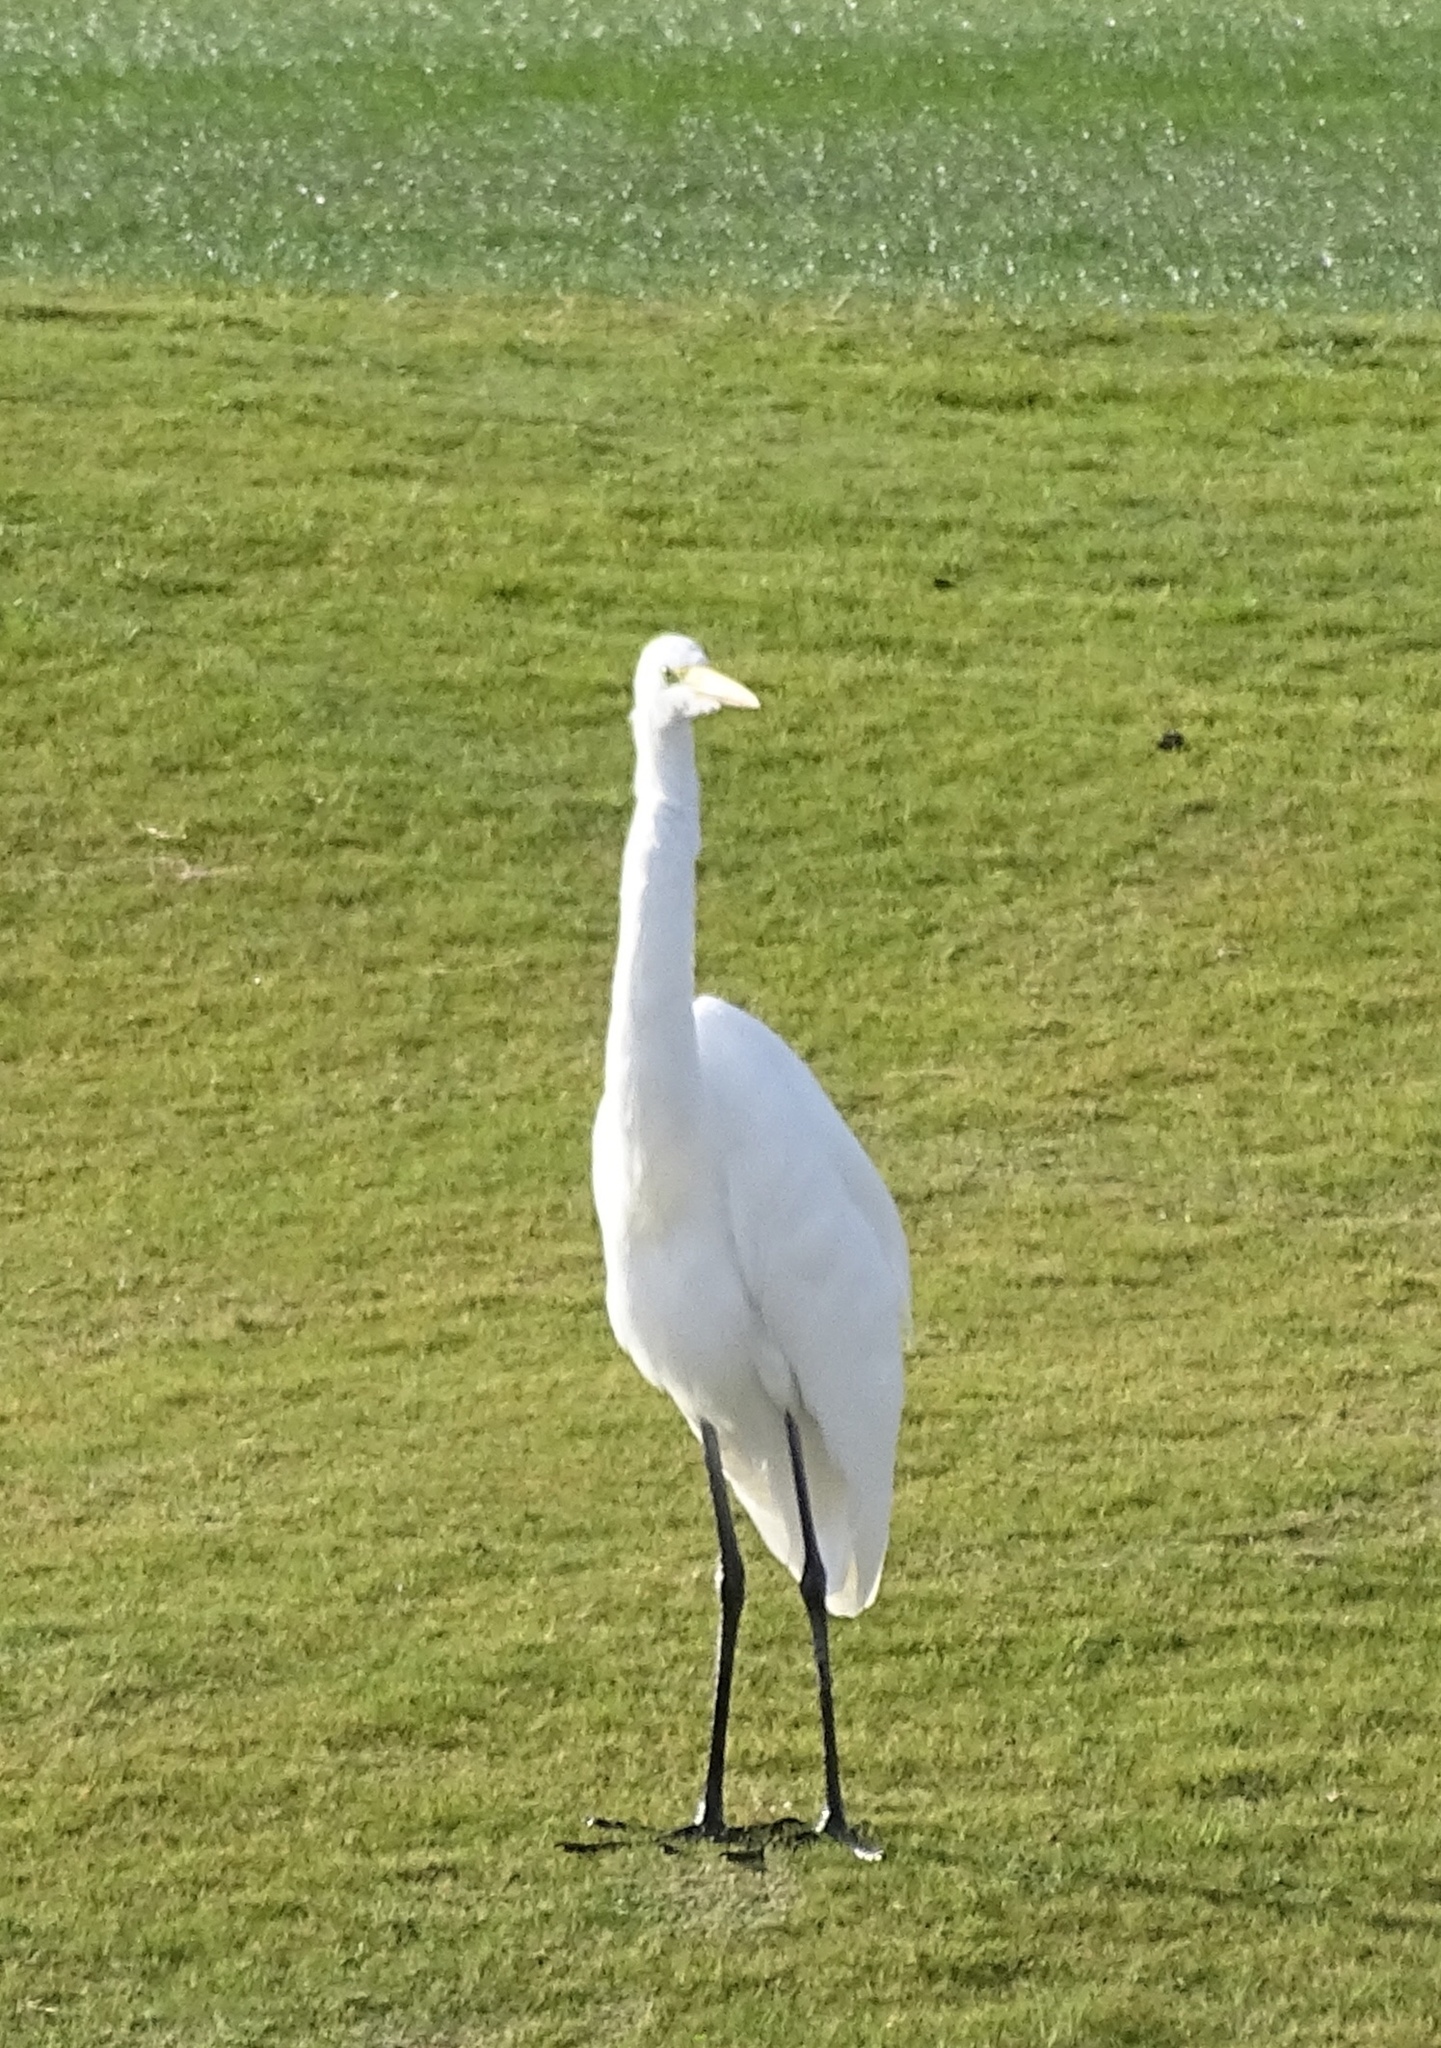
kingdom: Animalia
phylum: Chordata
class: Aves
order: Pelecaniformes
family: Ardeidae
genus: Ardea
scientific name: Ardea alba
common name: Great egret
